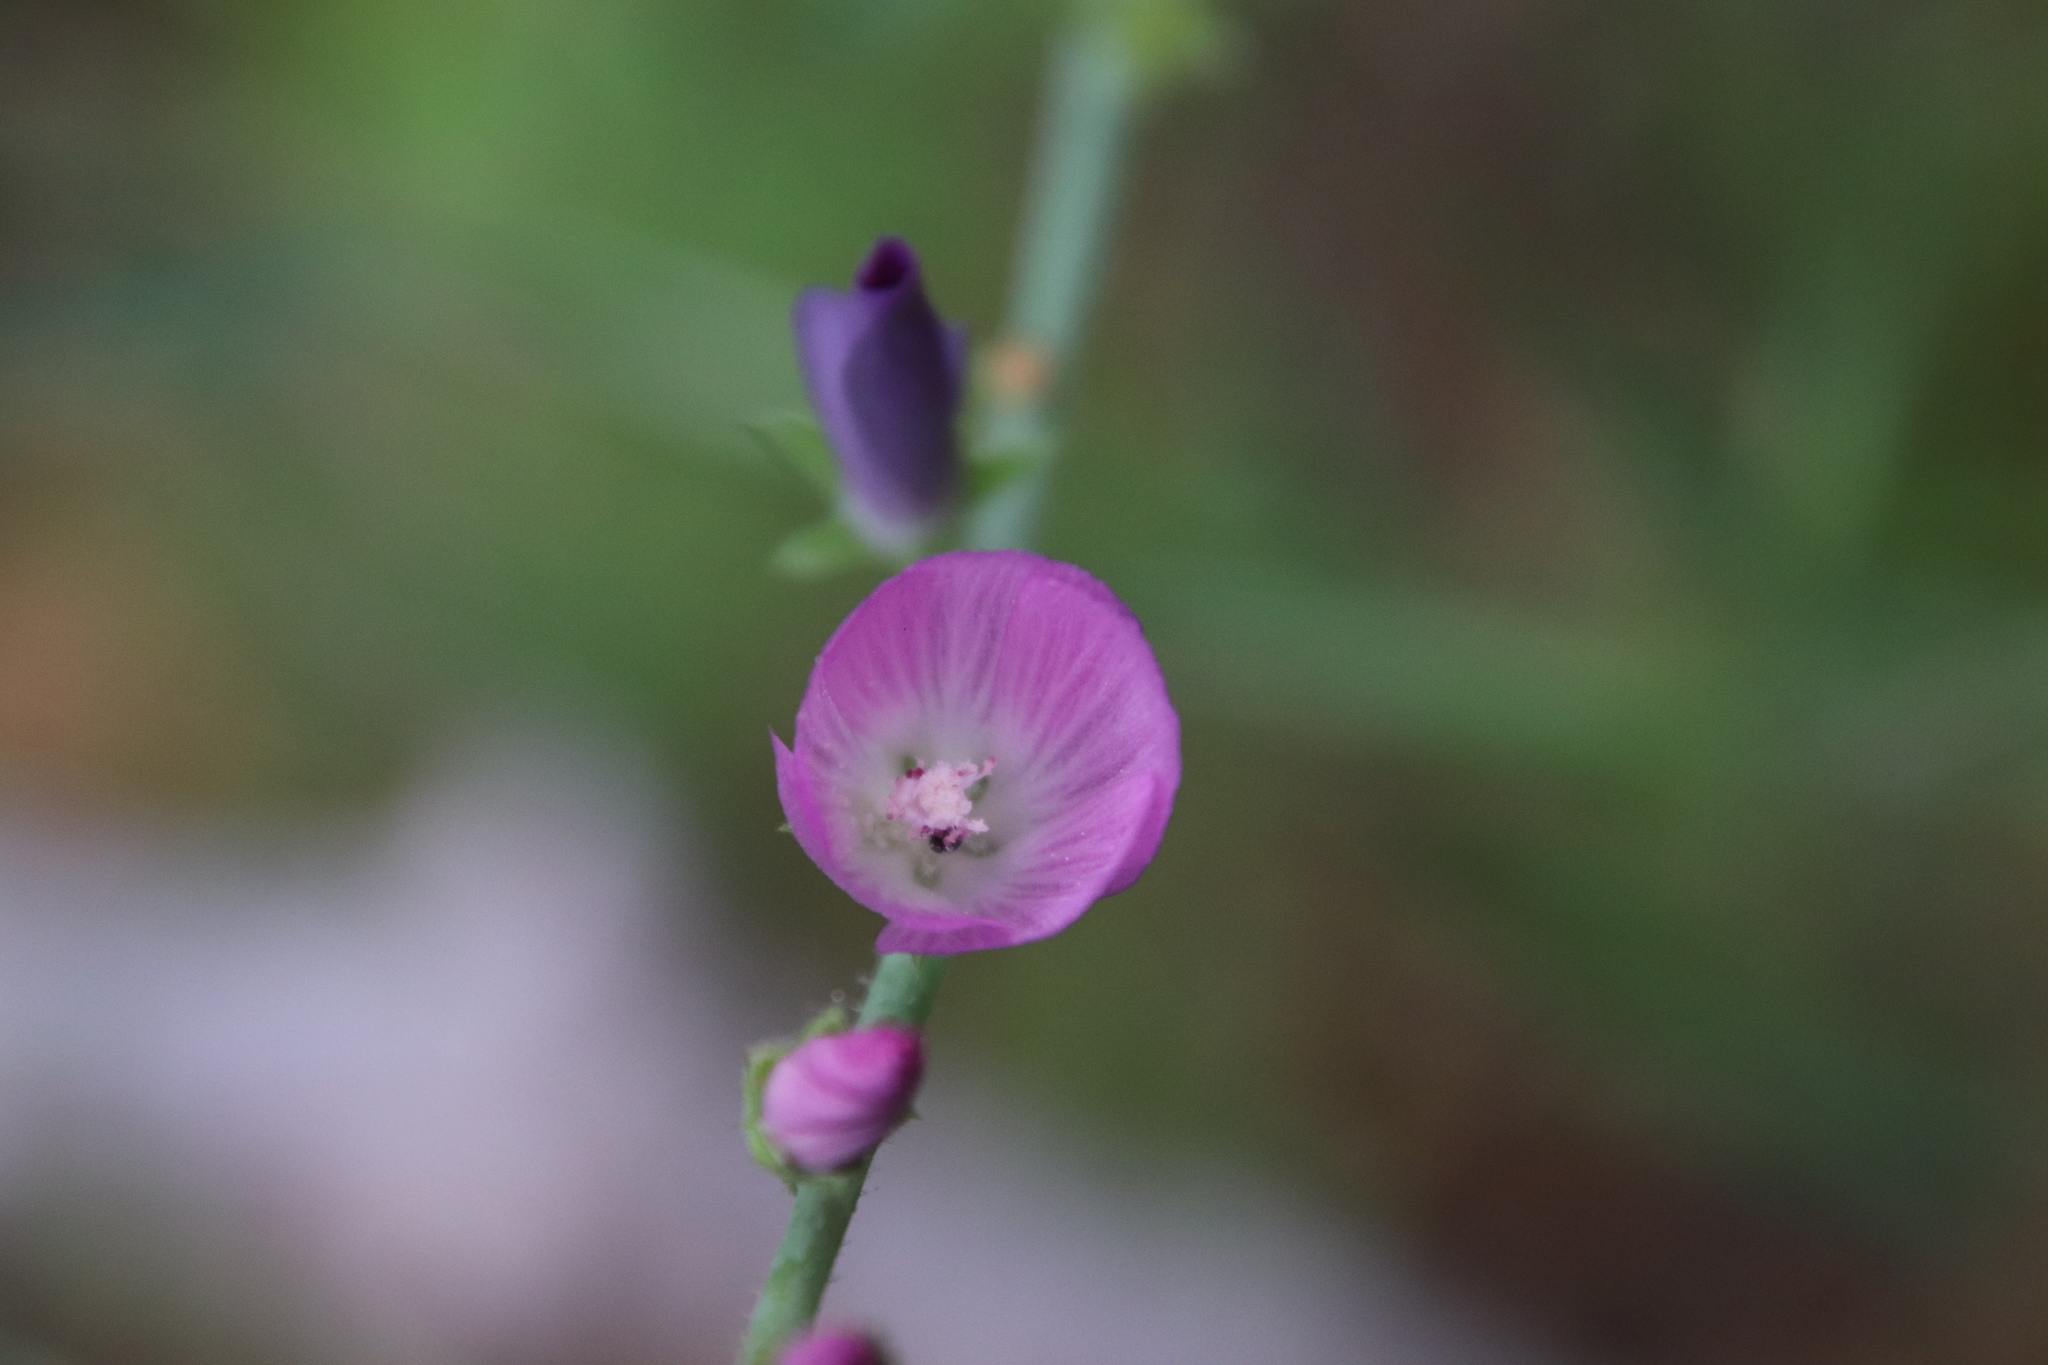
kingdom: Plantae
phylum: Tracheophyta
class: Magnoliopsida
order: Malvales
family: Malvaceae
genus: Sidalcea
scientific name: Sidalcea sparsifolia
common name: Southern checkerbloom
